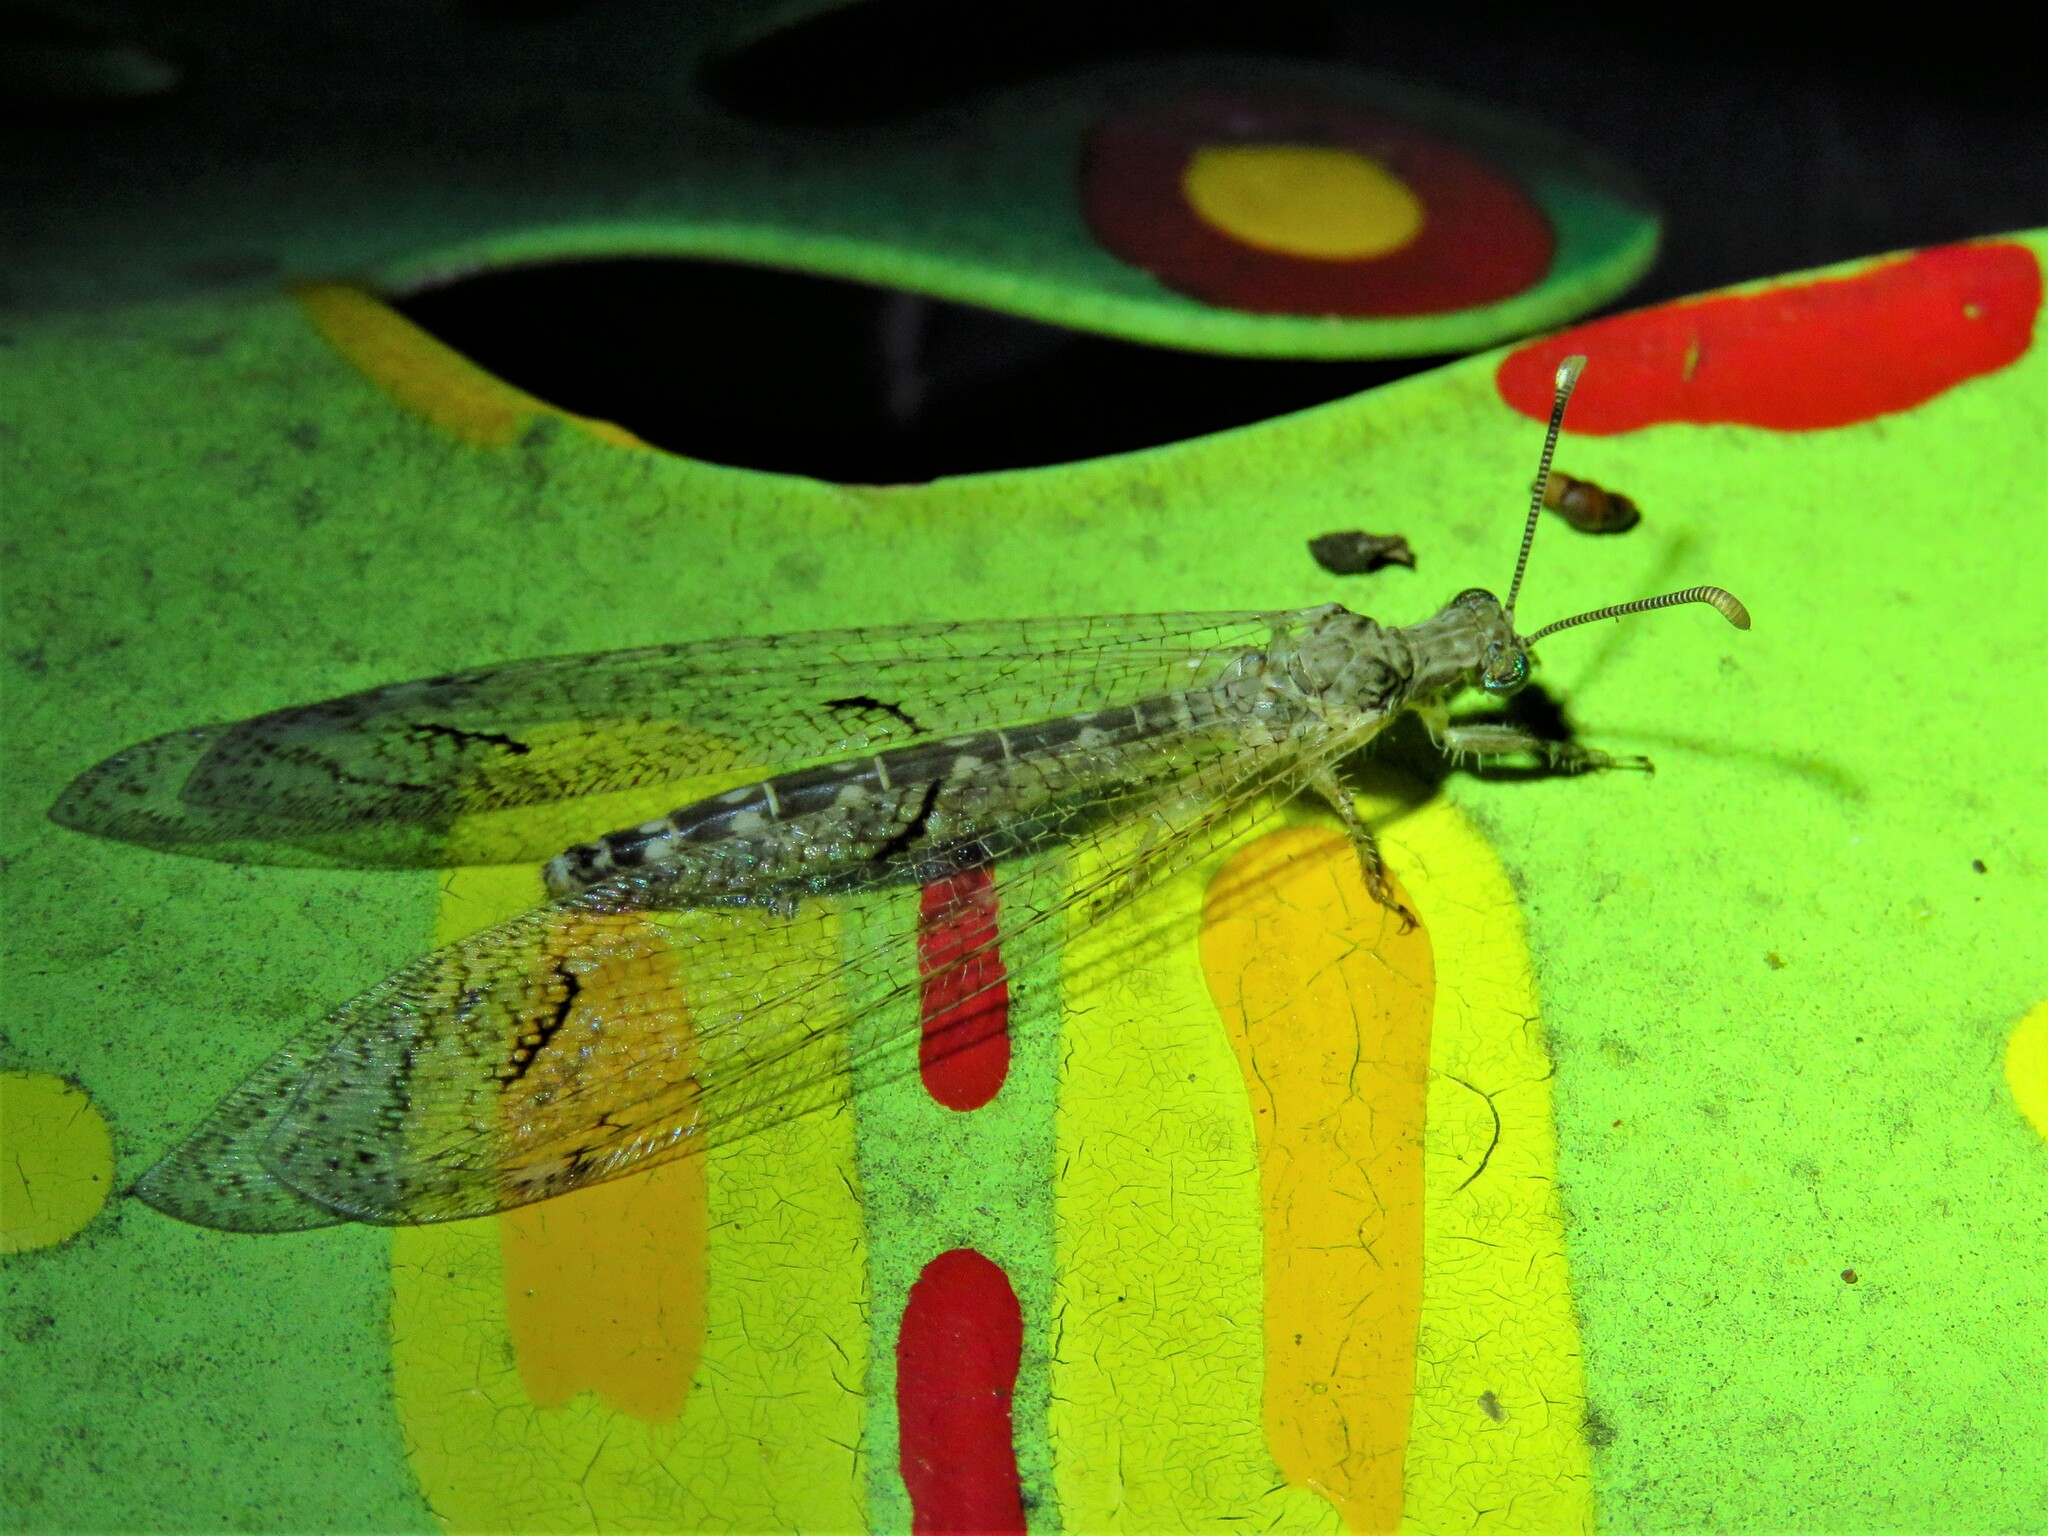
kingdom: Animalia
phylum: Arthropoda
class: Insecta
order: Neuroptera
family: Myrmeleontidae
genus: Euptilon
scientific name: Euptilon ornatum
